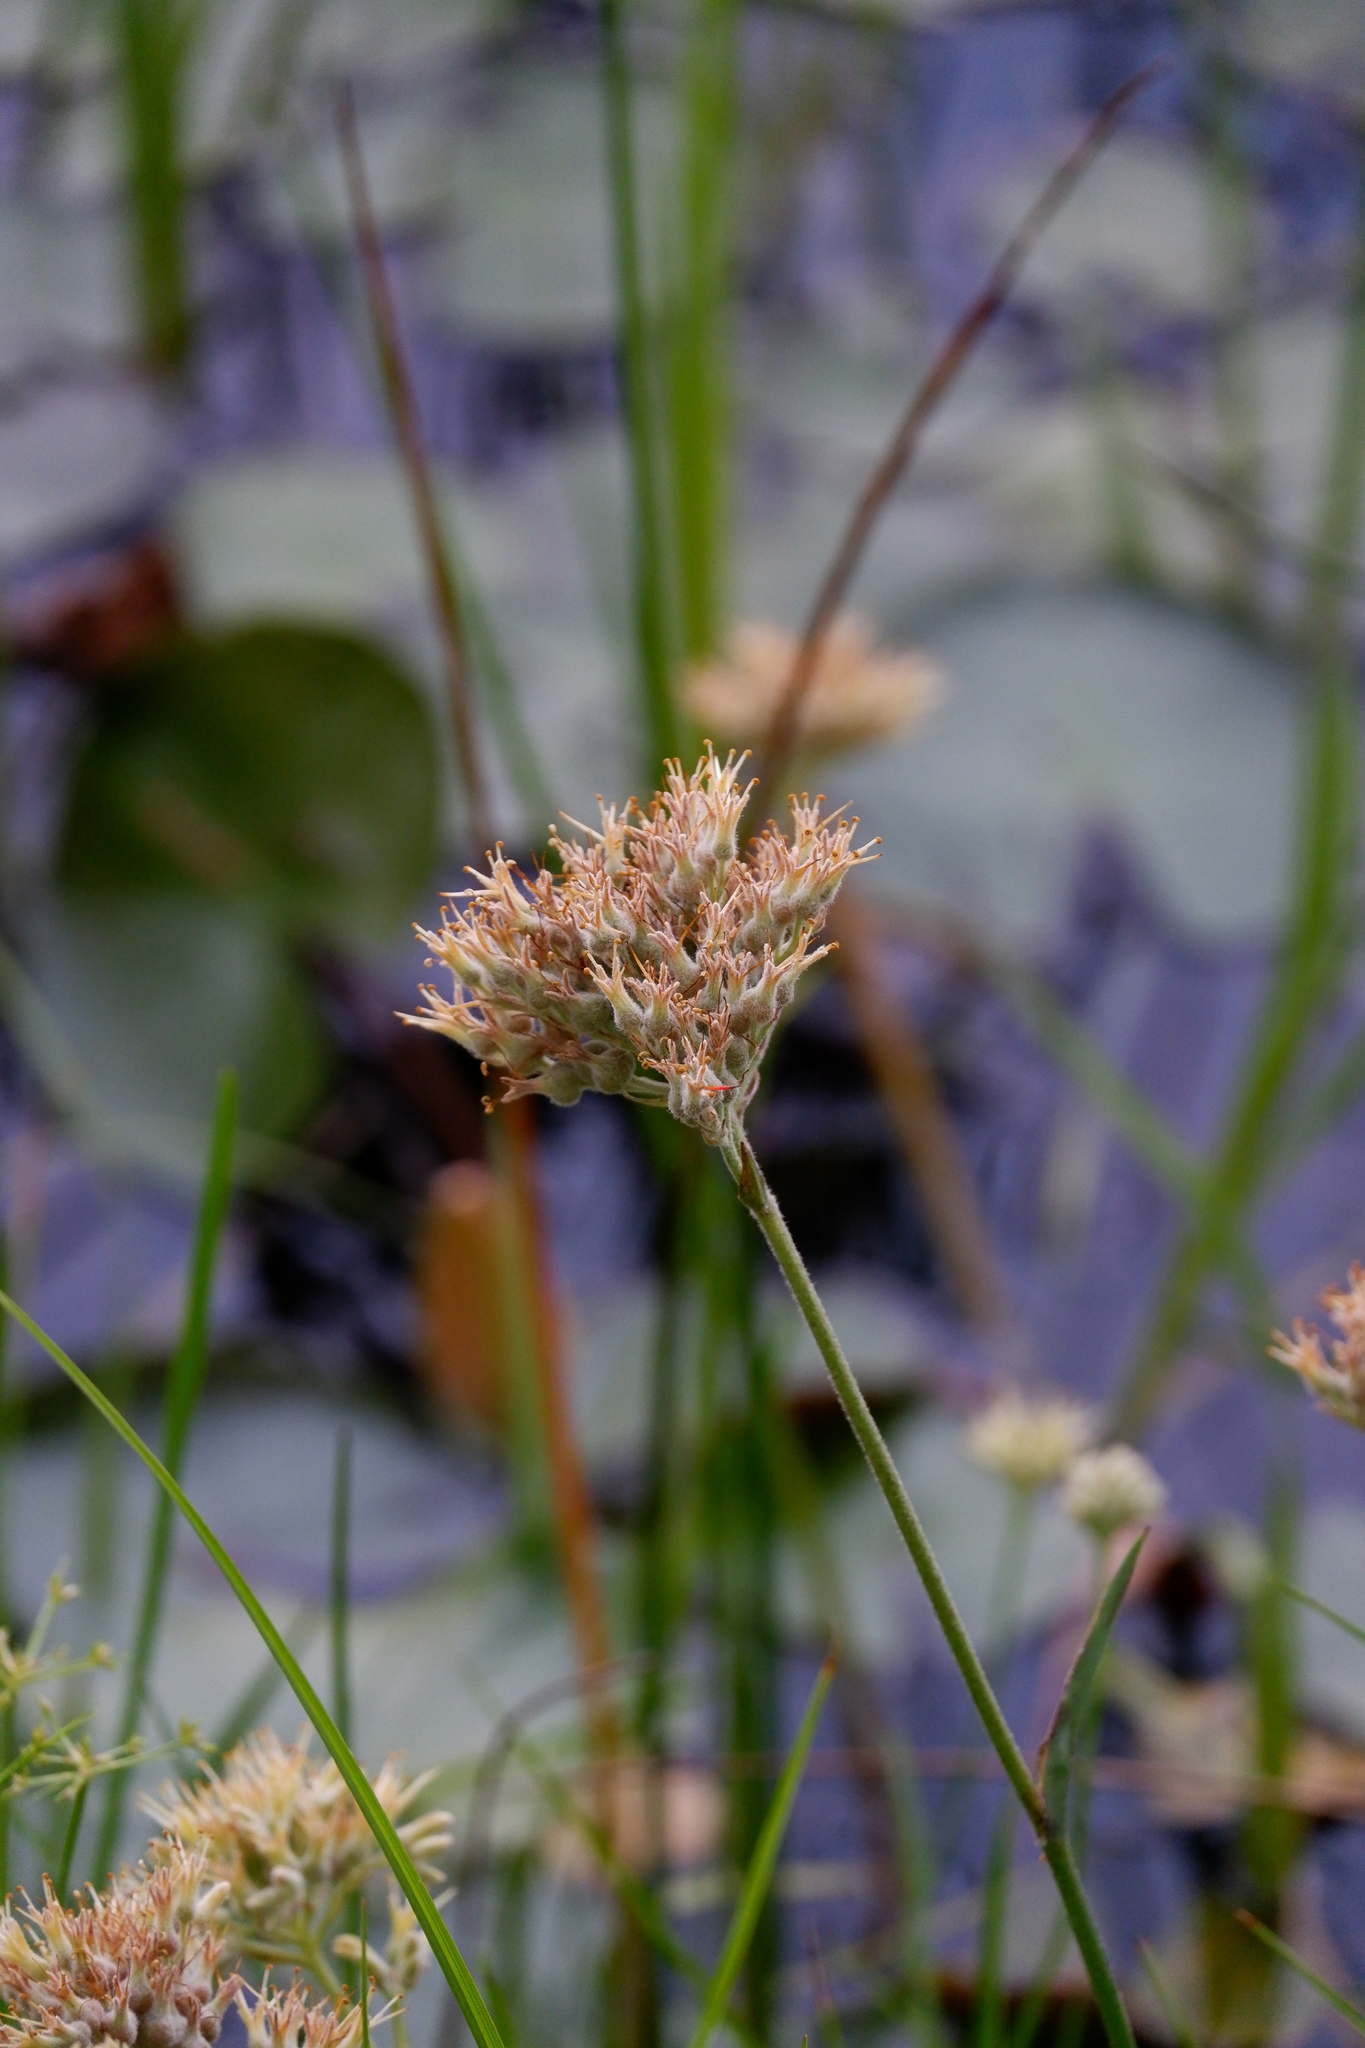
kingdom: Plantae
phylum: Tracheophyta
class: Liliopsida
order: Commelinales
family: Haemodoraceae
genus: Lachnanthes
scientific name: Lachnanthes caroliana
